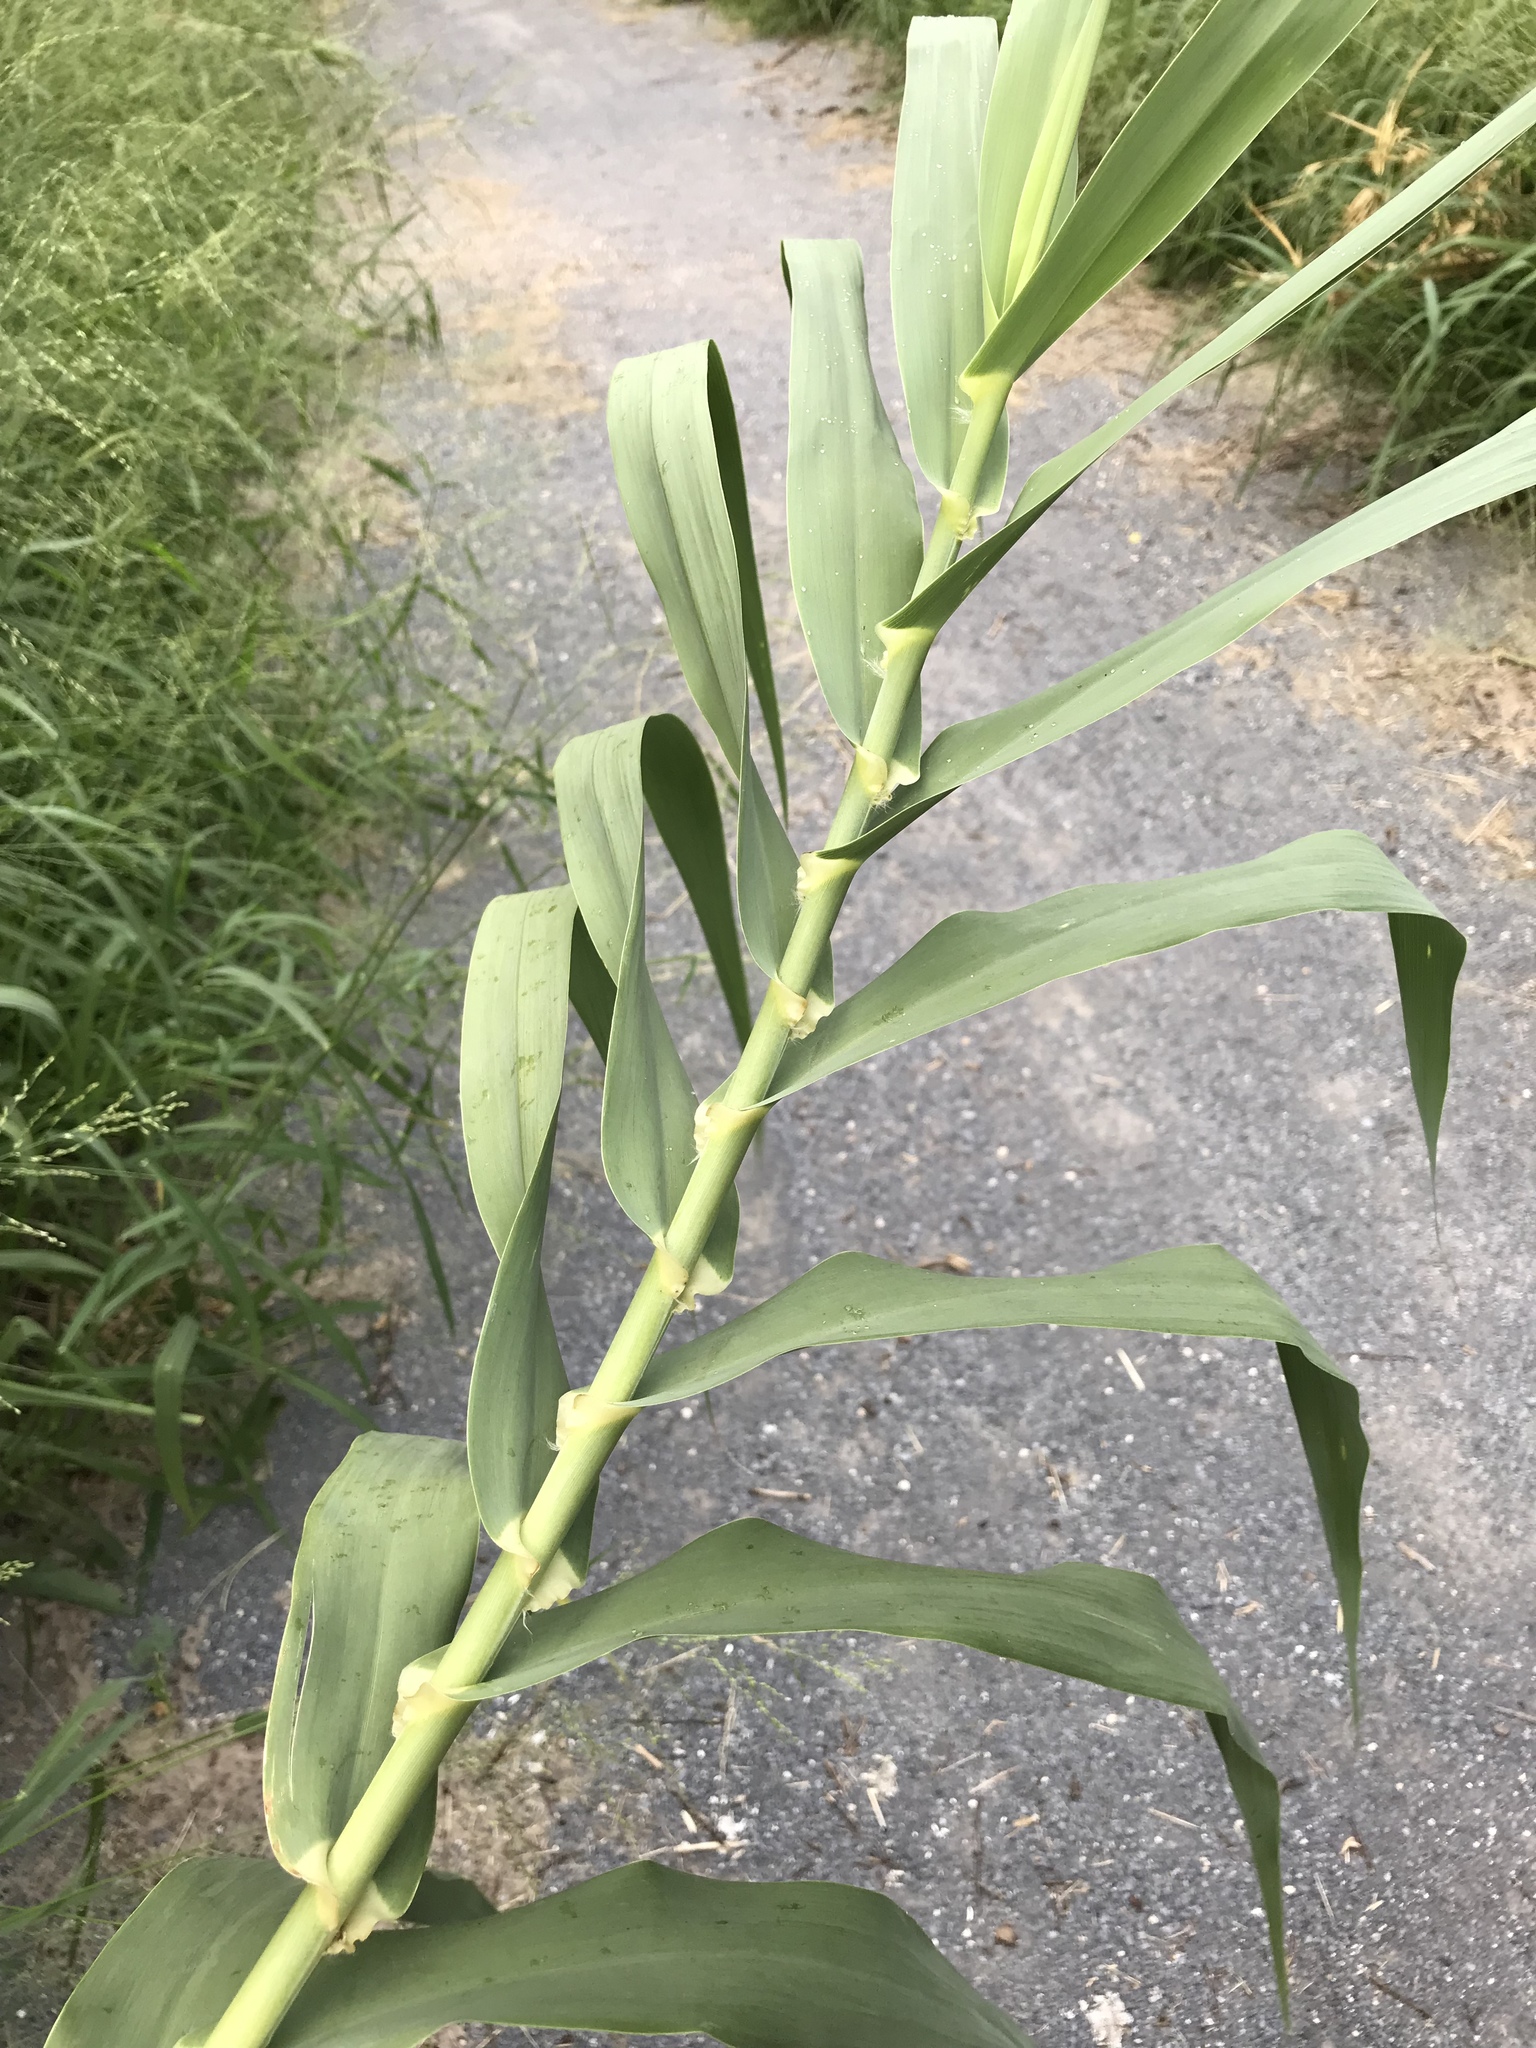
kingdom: Plantae
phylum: Tracheophyta
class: Liliopsida
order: Poales
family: Poaceae
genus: Arundo
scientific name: Arundo donax
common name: Giant reed
